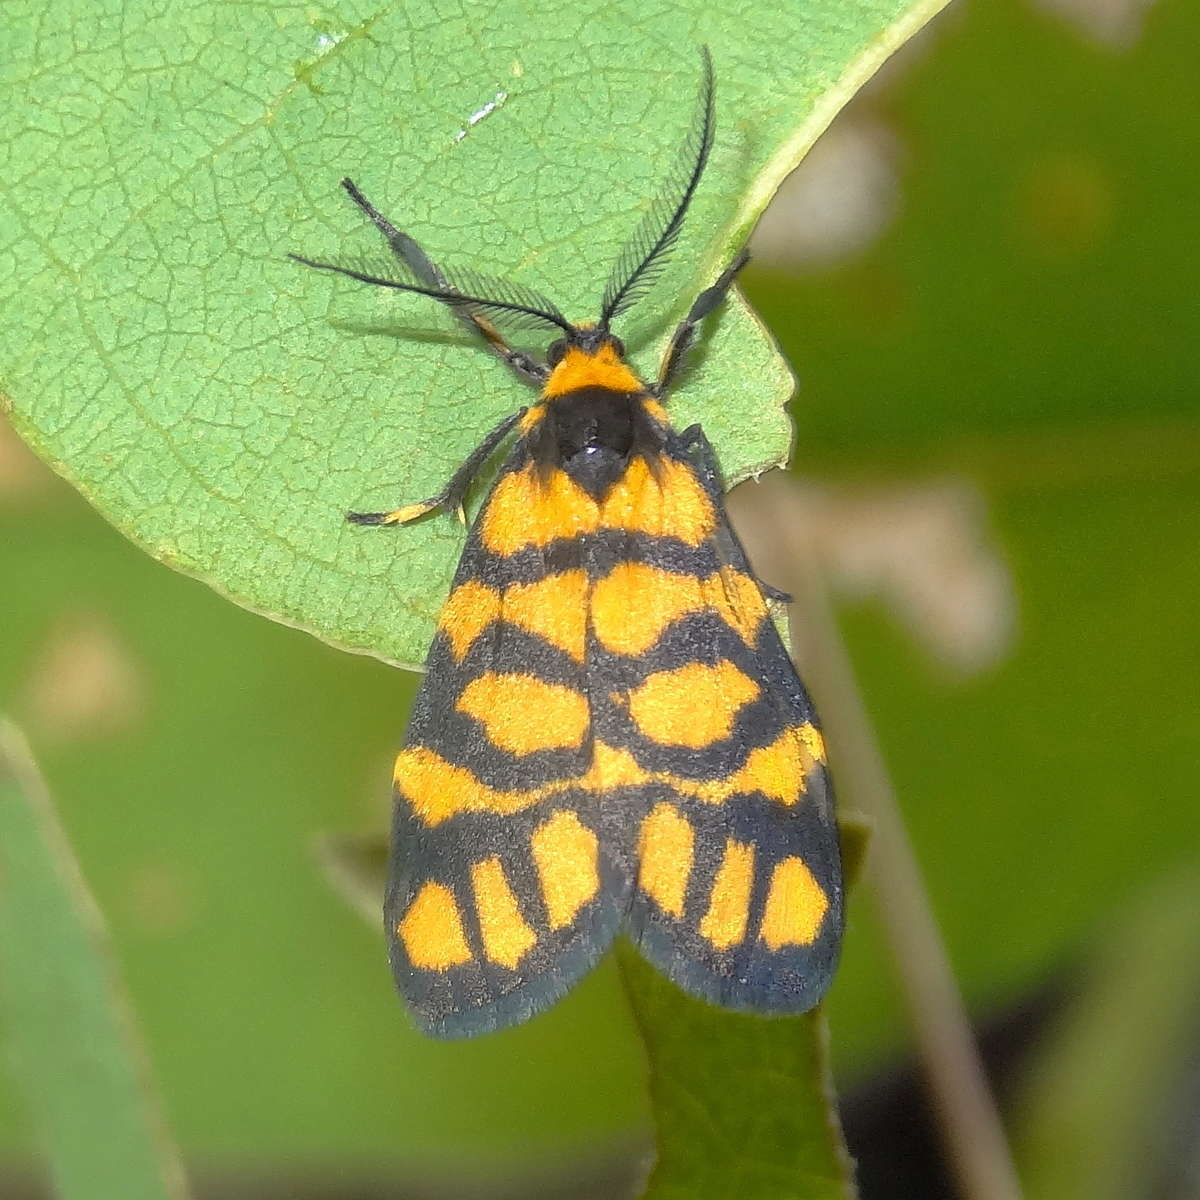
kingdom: Animalia
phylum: Arthropoda
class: Insecta
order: Lepidoptera
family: Erebidae
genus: Asura
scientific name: Asura lydia
